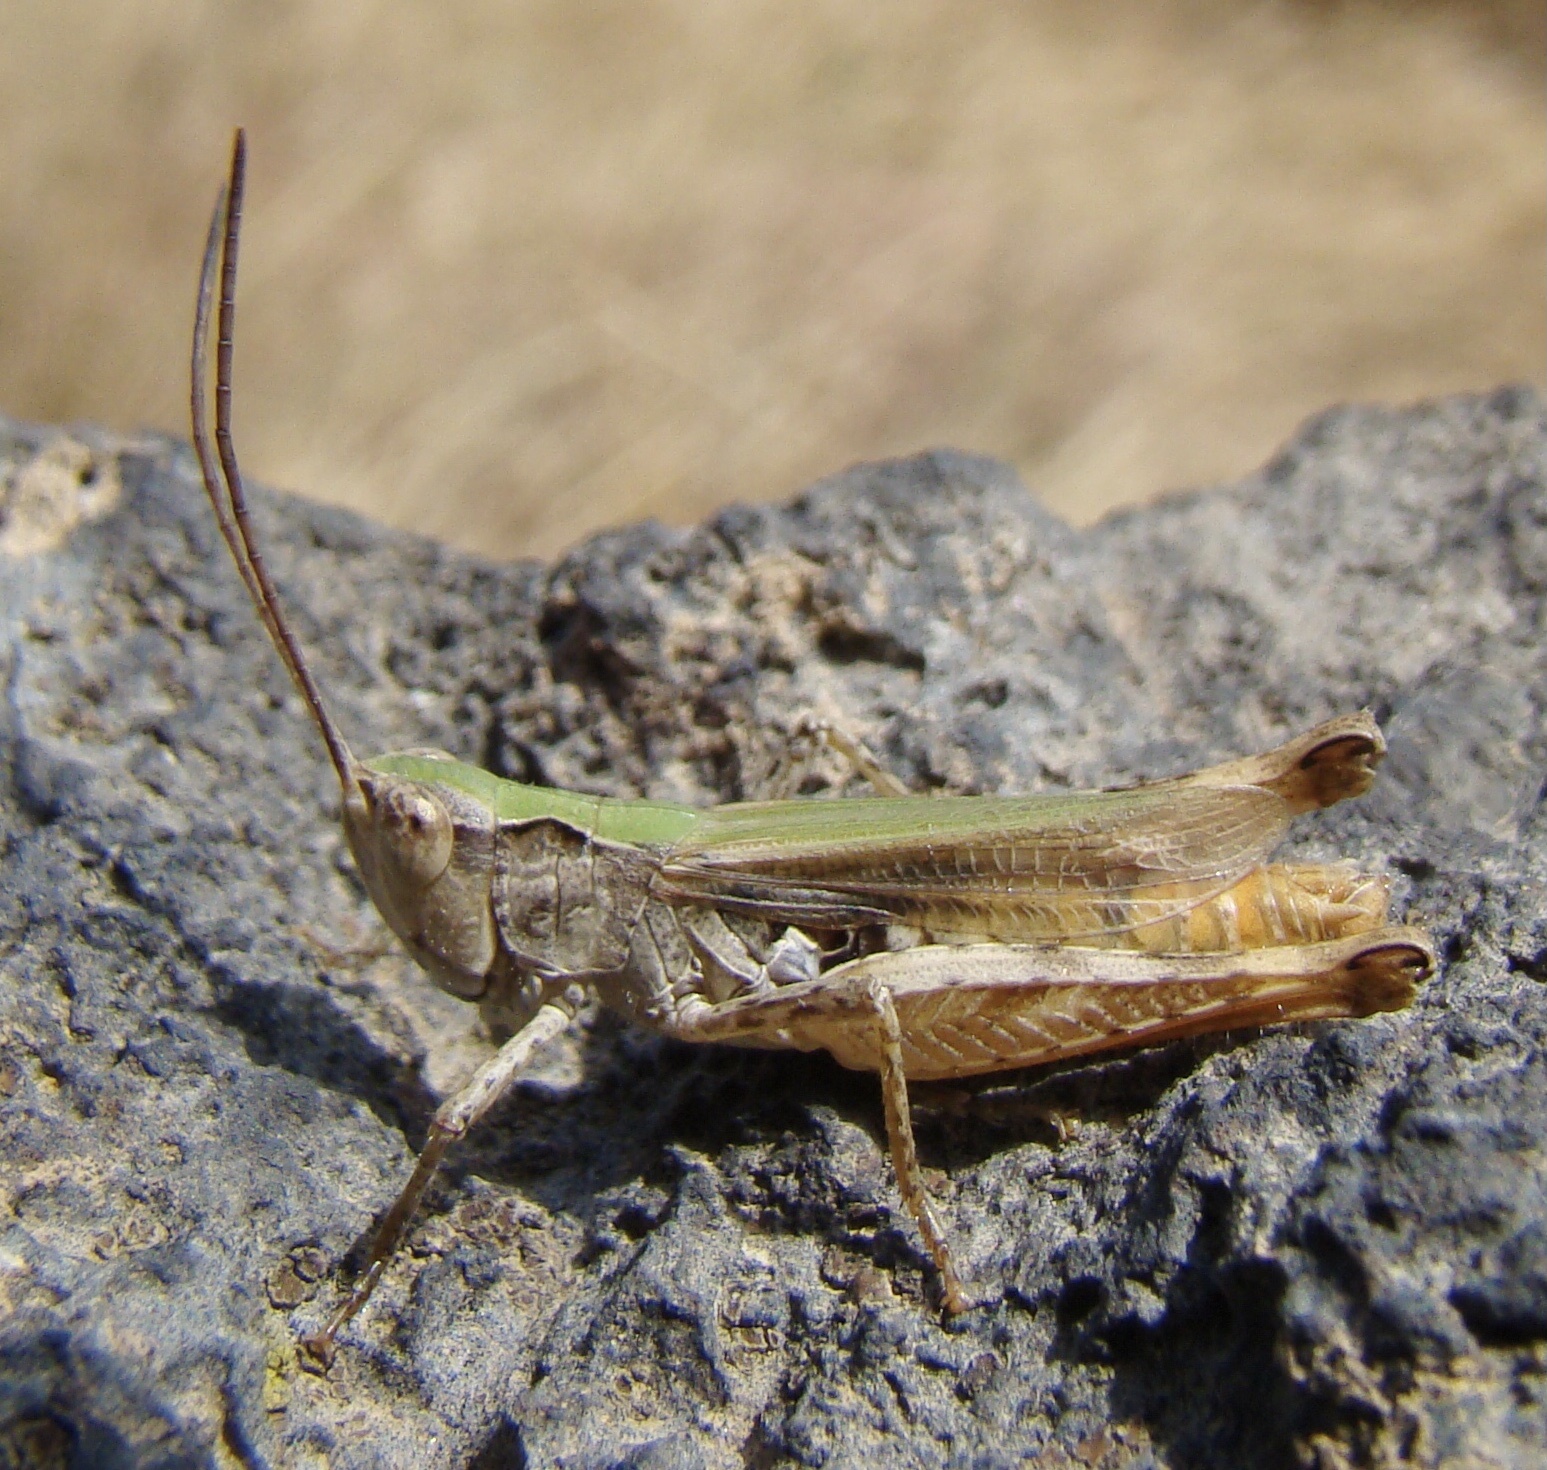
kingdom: Animalia
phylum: Arthropoda
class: Insecta
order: Orthoptera
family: Acrididae
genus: Chorthippus
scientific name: Chorthippus macrocerus
